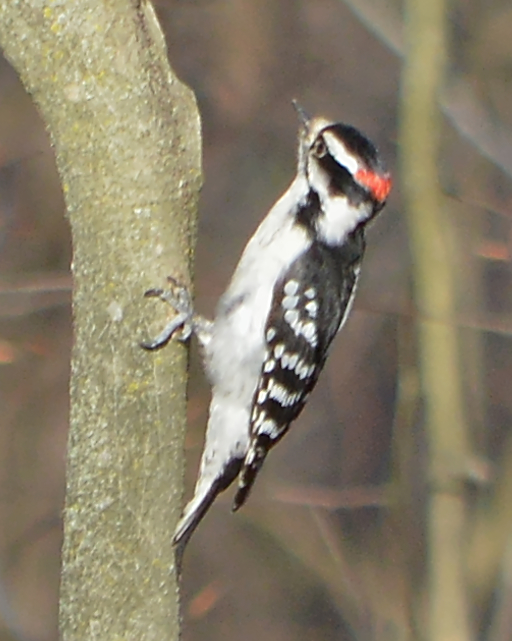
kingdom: Animalia
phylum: Chordata
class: Aves
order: Piciformes
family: Picidae
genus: Dryobates
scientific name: Dryobates pubescens
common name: Downy woodpecker
